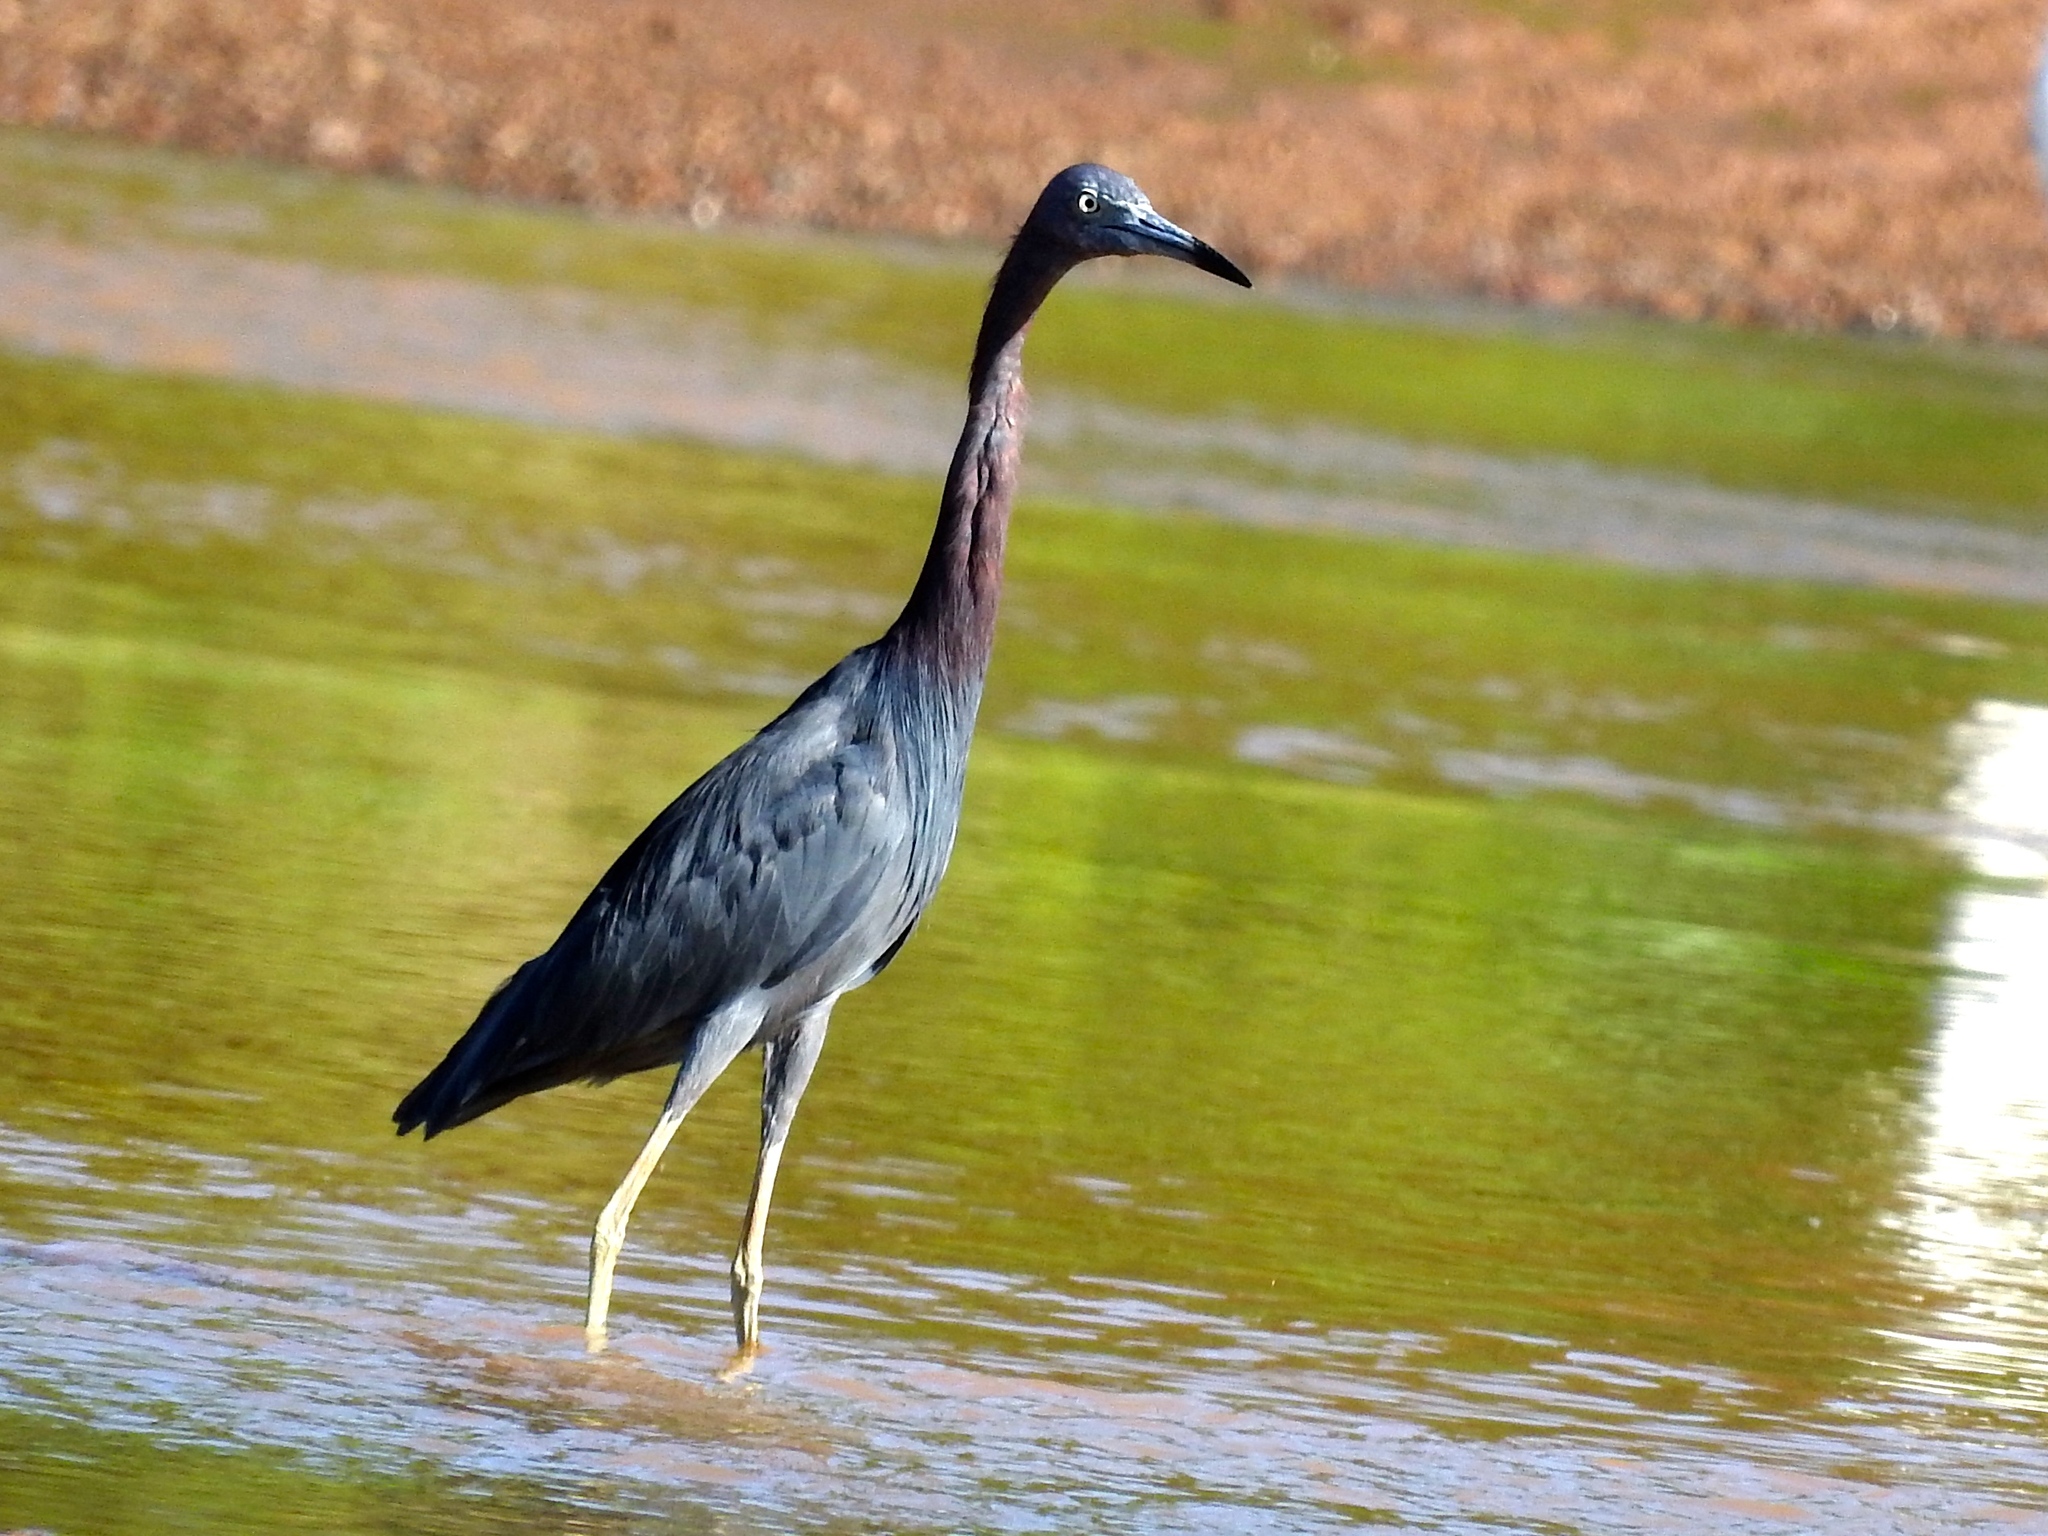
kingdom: Animalia
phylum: Chordata
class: Aves
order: Pelecaniformes
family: Ardeidae
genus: Egretta
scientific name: Egretta caerulea
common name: Little blue heron
